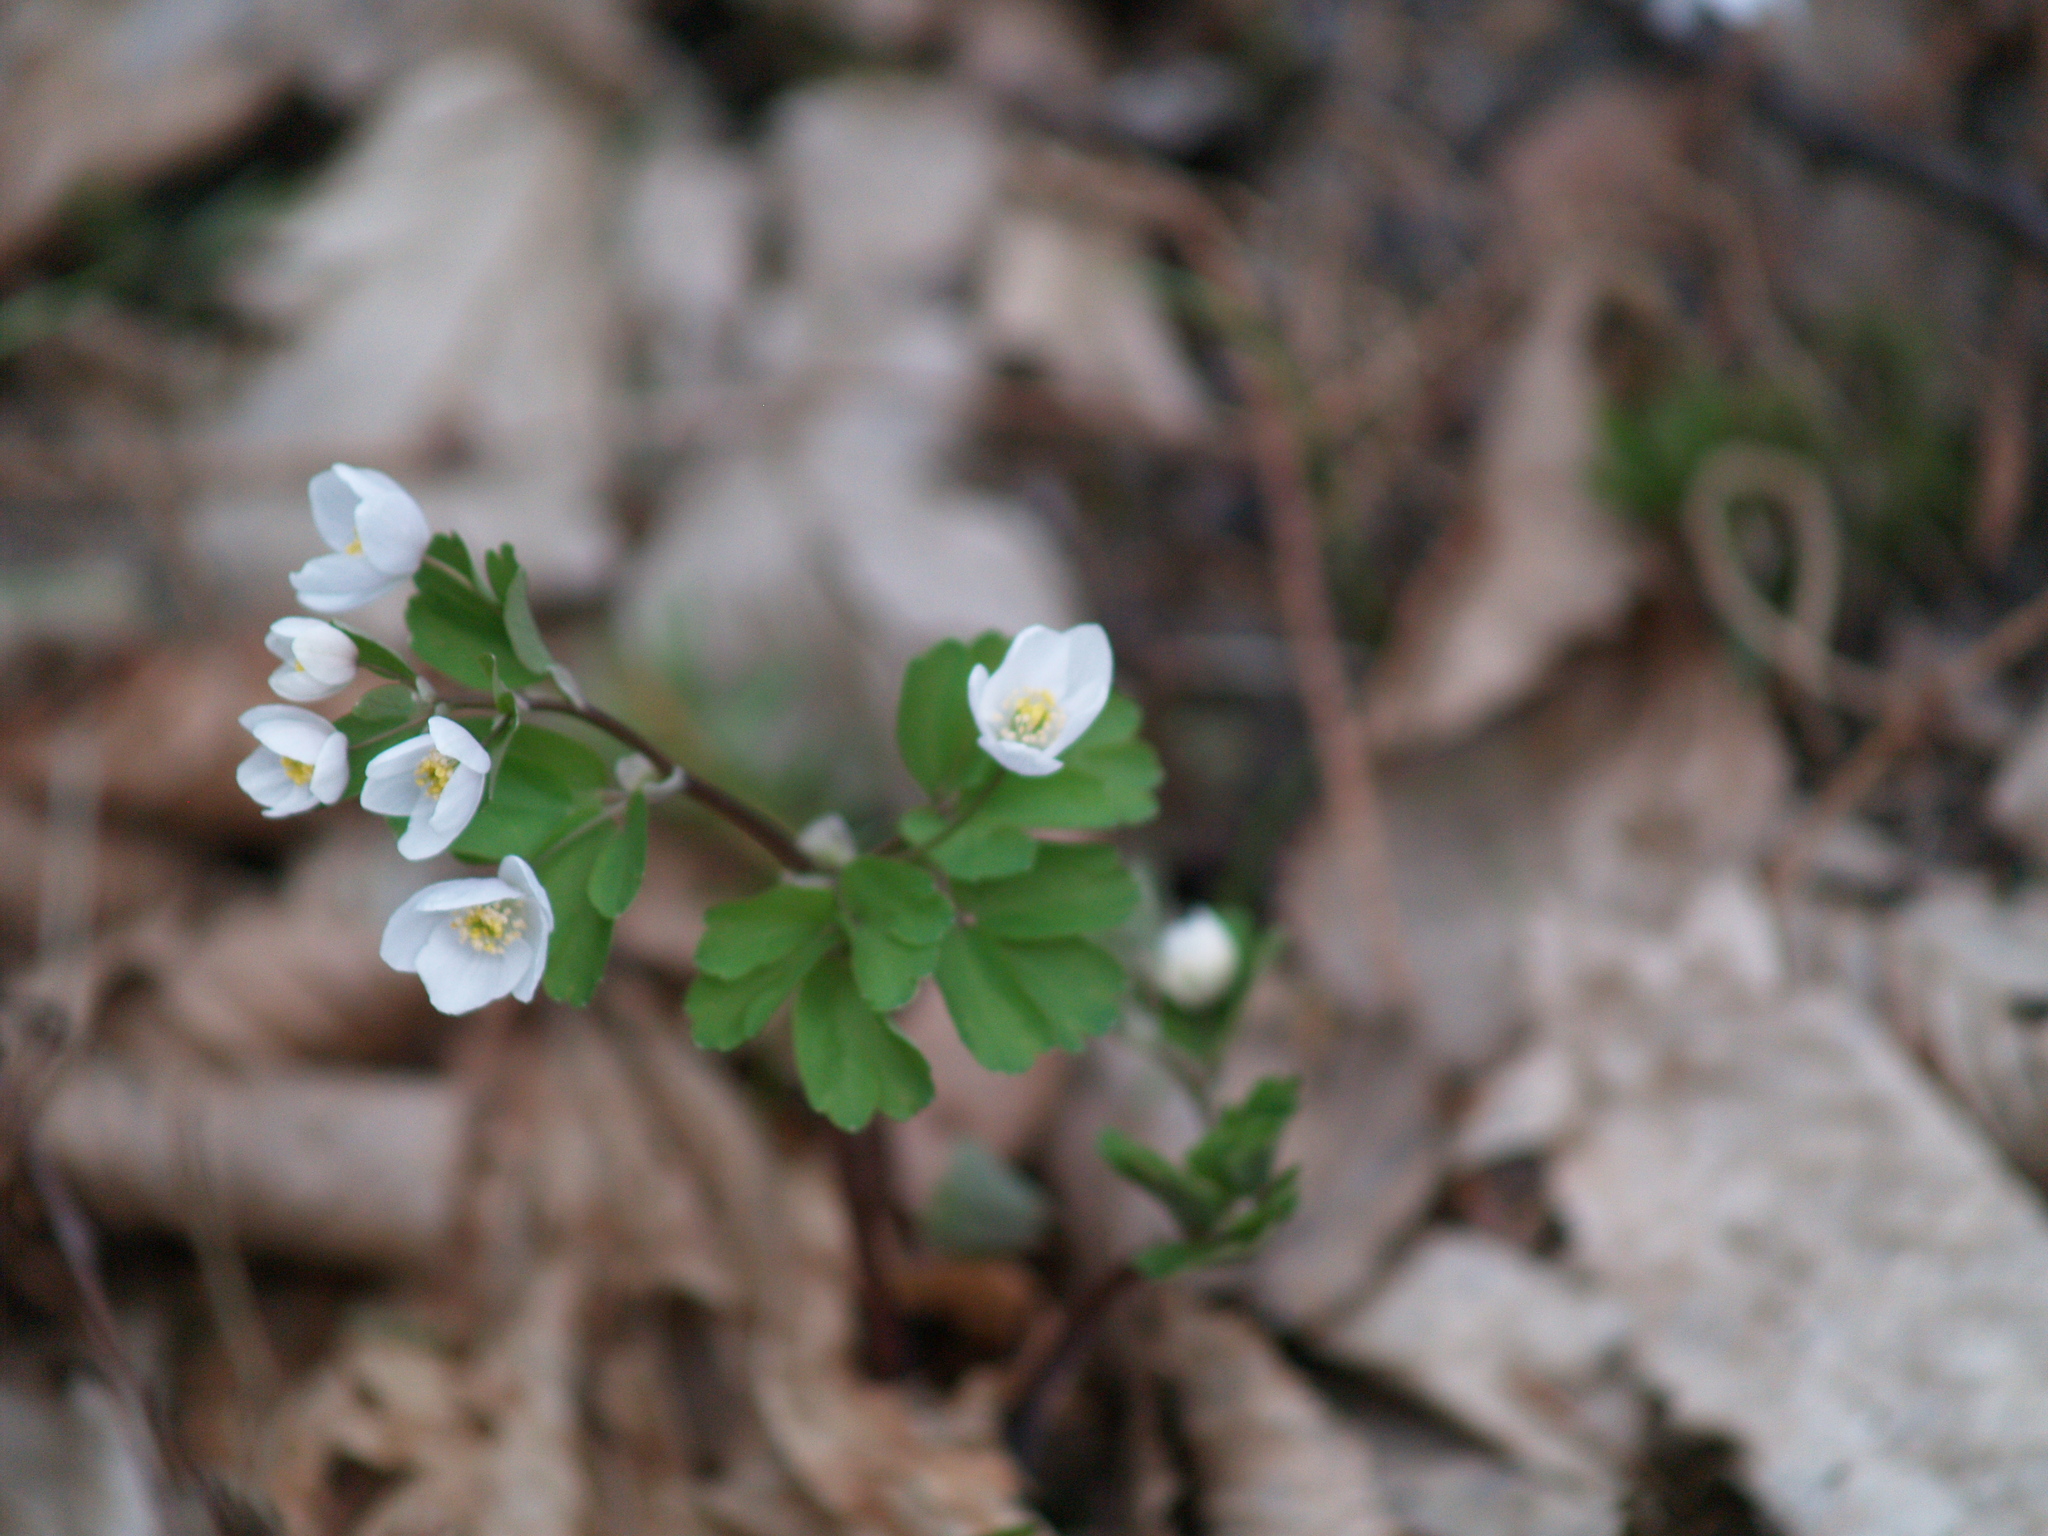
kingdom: Plantae
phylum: Tracheophyta
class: Magnoliopsida
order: Ranunculales
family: Ranunculaceae
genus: Isopyrum
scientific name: Isopyrum thalictroides
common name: Isopyrum
